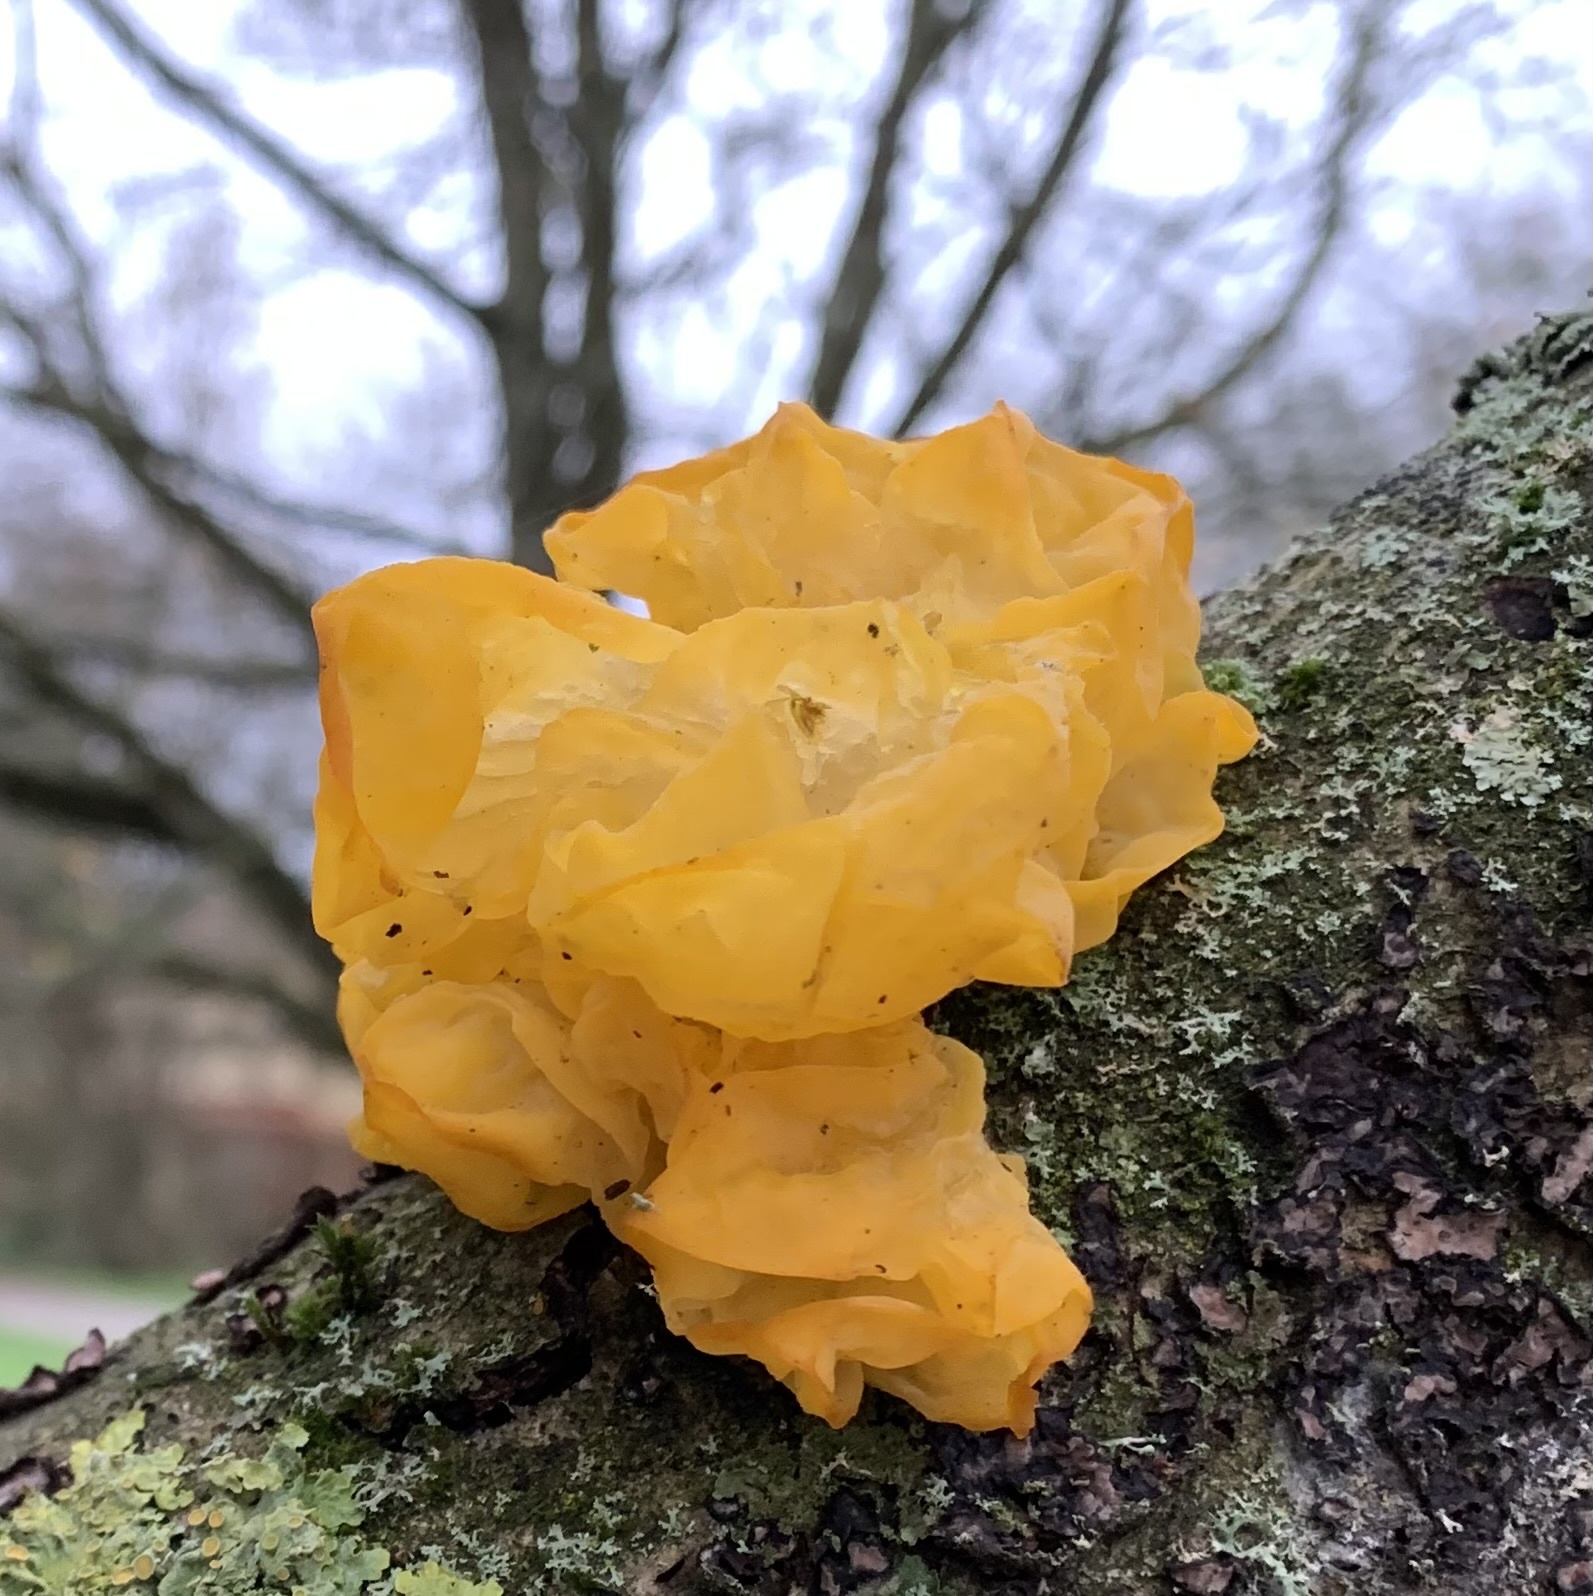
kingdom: Fungi
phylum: Basidiomycota
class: Tremellomycetes
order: Tremellales
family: Tremellaceae
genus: Tremella
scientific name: Tremella mesenterica
